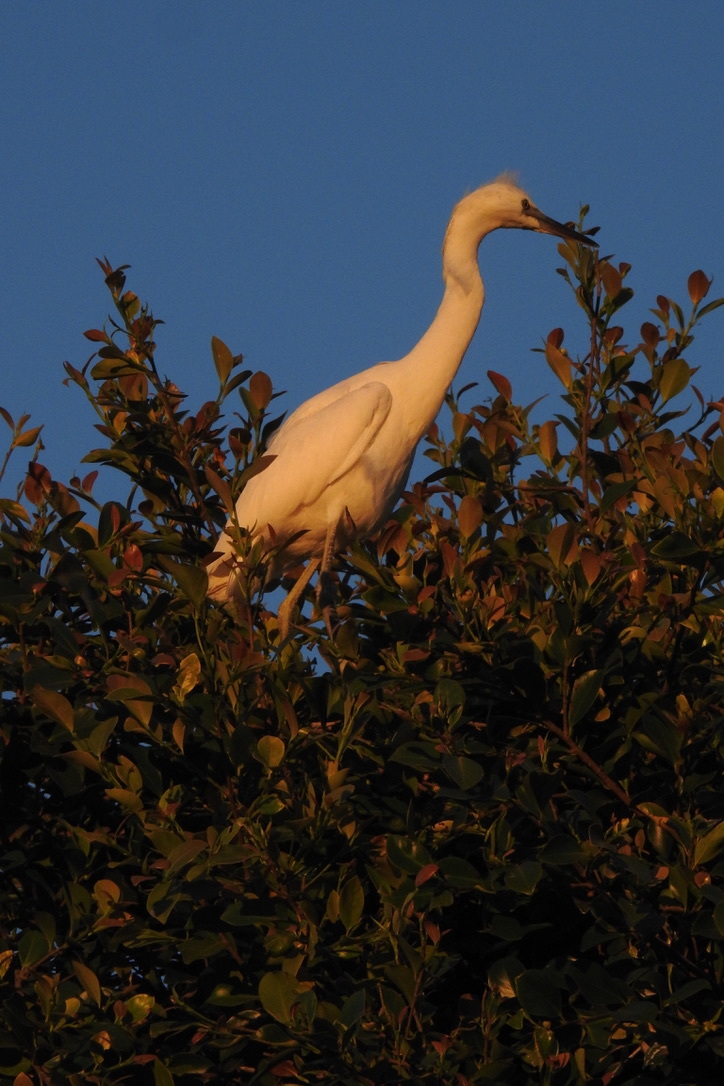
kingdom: Animalia
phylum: Chordata
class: Aves
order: Pelecaniformes
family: Ardeidae
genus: Egretta
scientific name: Egretta thula
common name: Snowy egret
